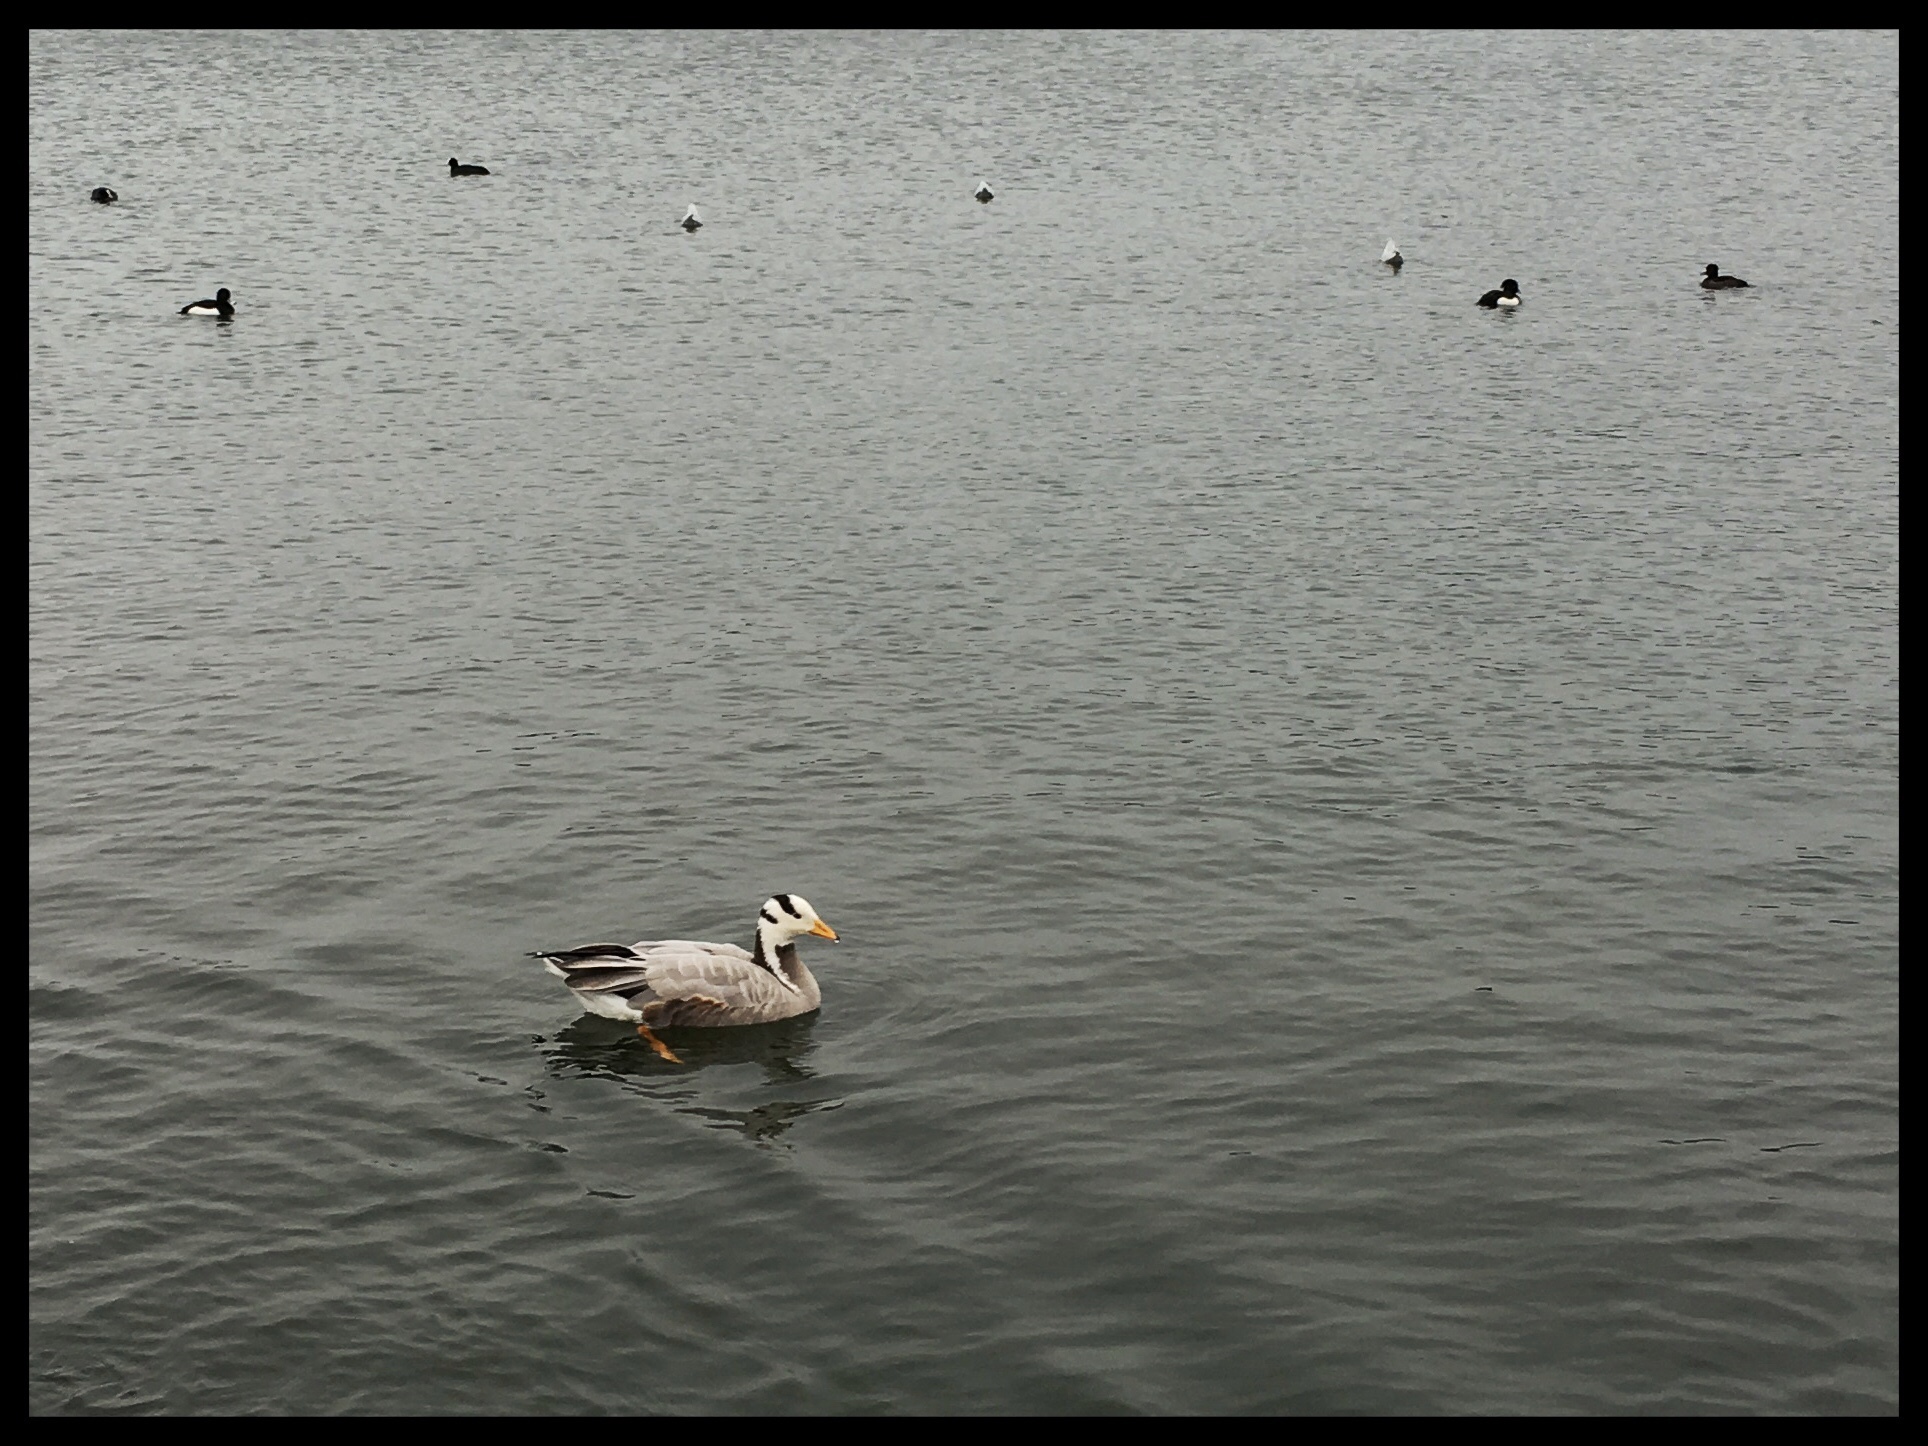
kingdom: Animalia
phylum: Chordata
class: Aves
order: Anseriformes
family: Anatidae
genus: Anser
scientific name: Anser indicus
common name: Bar-headed goose
